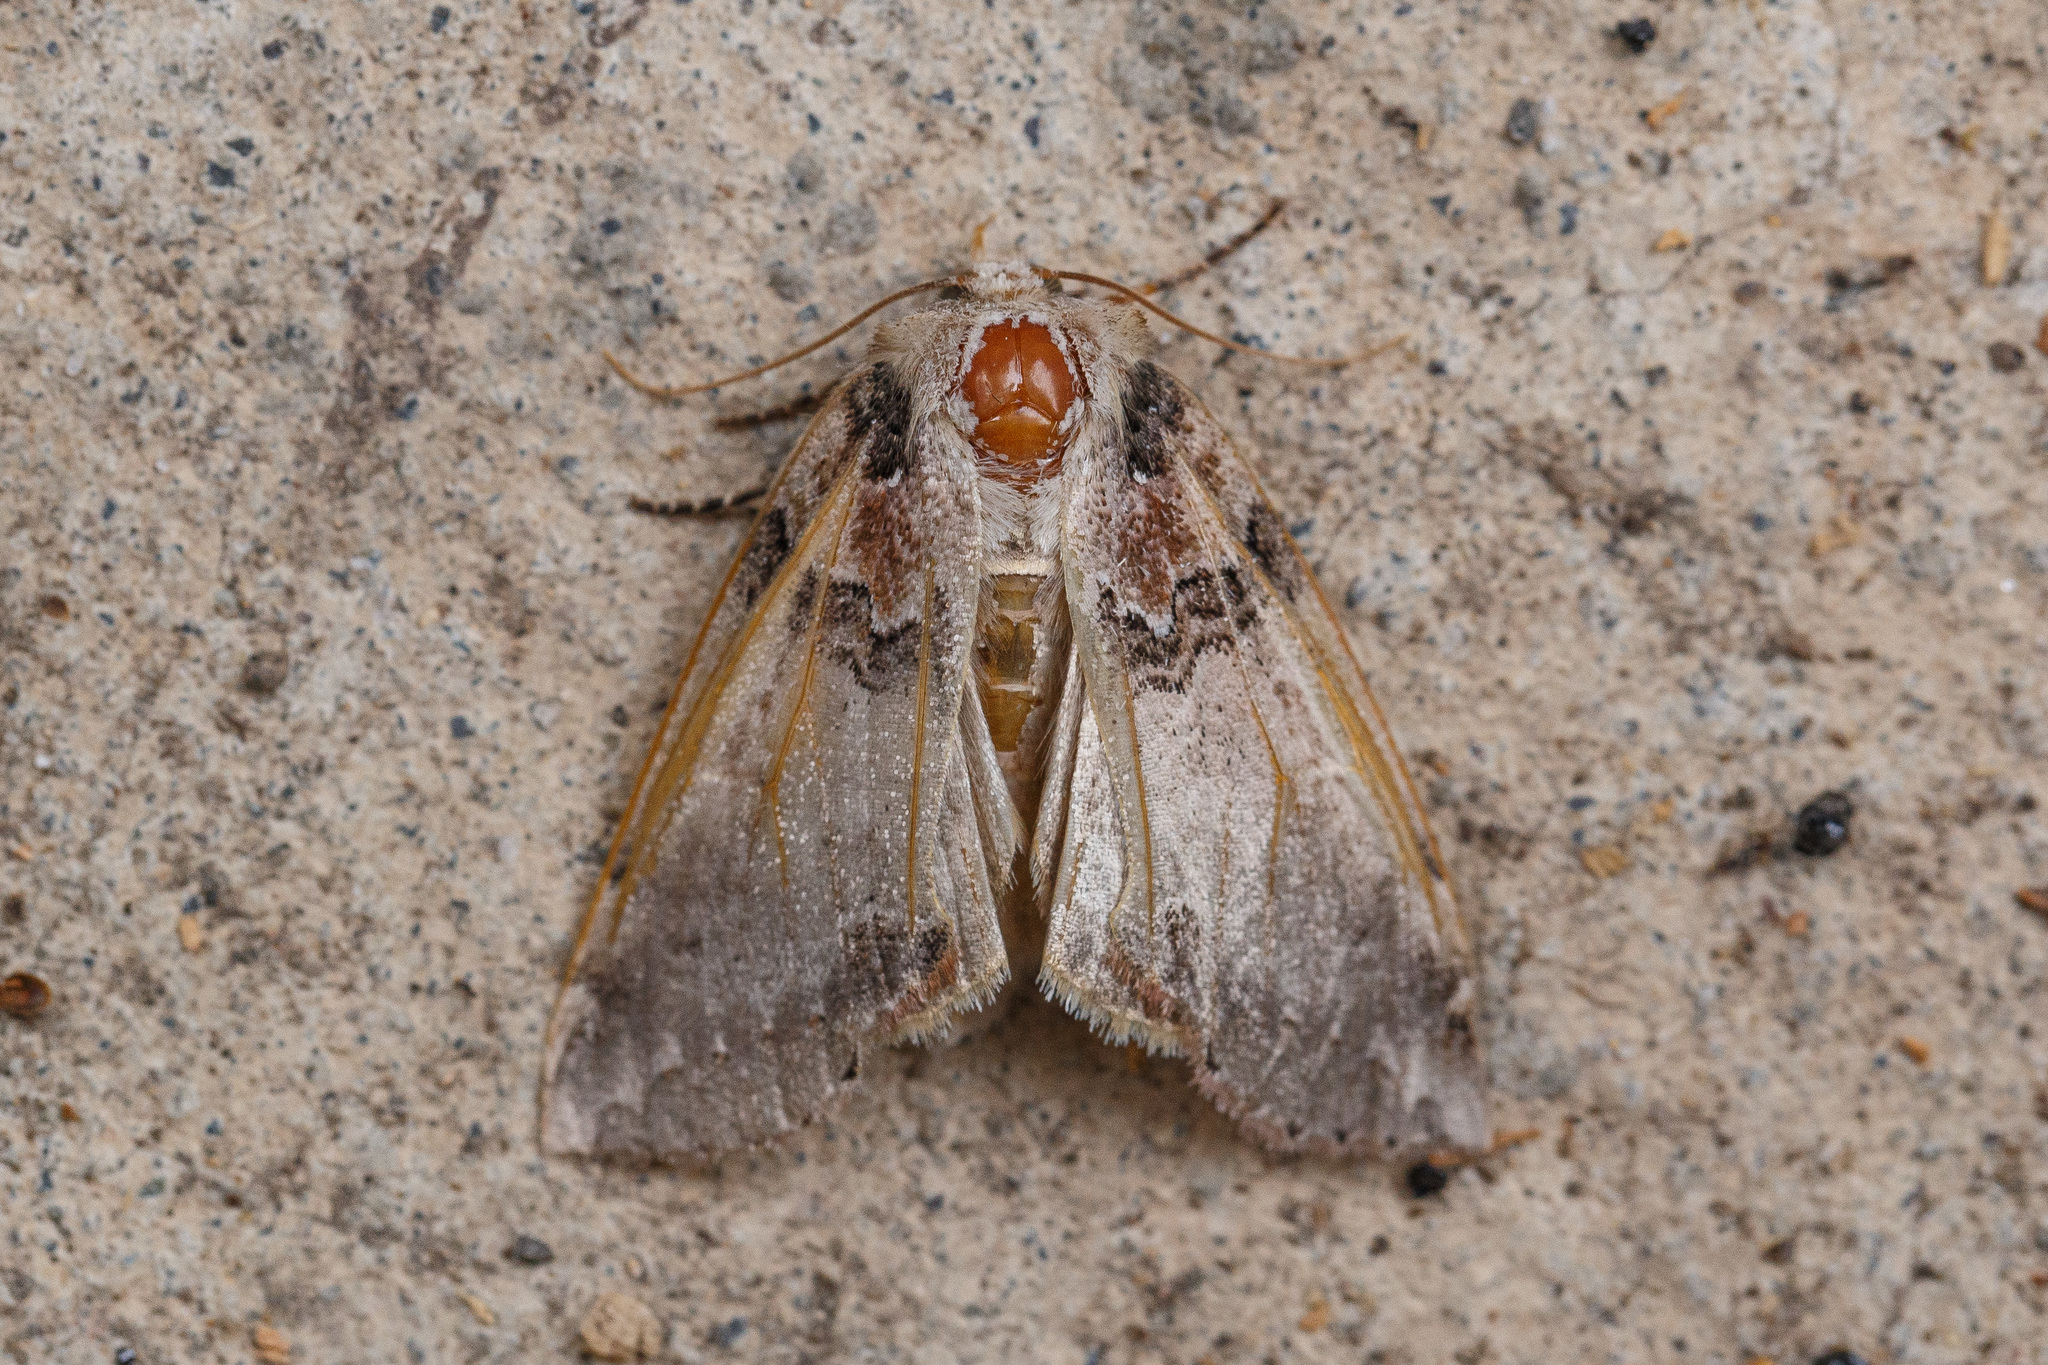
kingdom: Animalia
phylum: Arthropoda
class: Insecta
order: Lepidoptera
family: Drepanidae
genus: Pseudothyatira
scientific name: Pseudothyatira cymatophoroides
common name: Tufted thyatirid moth
